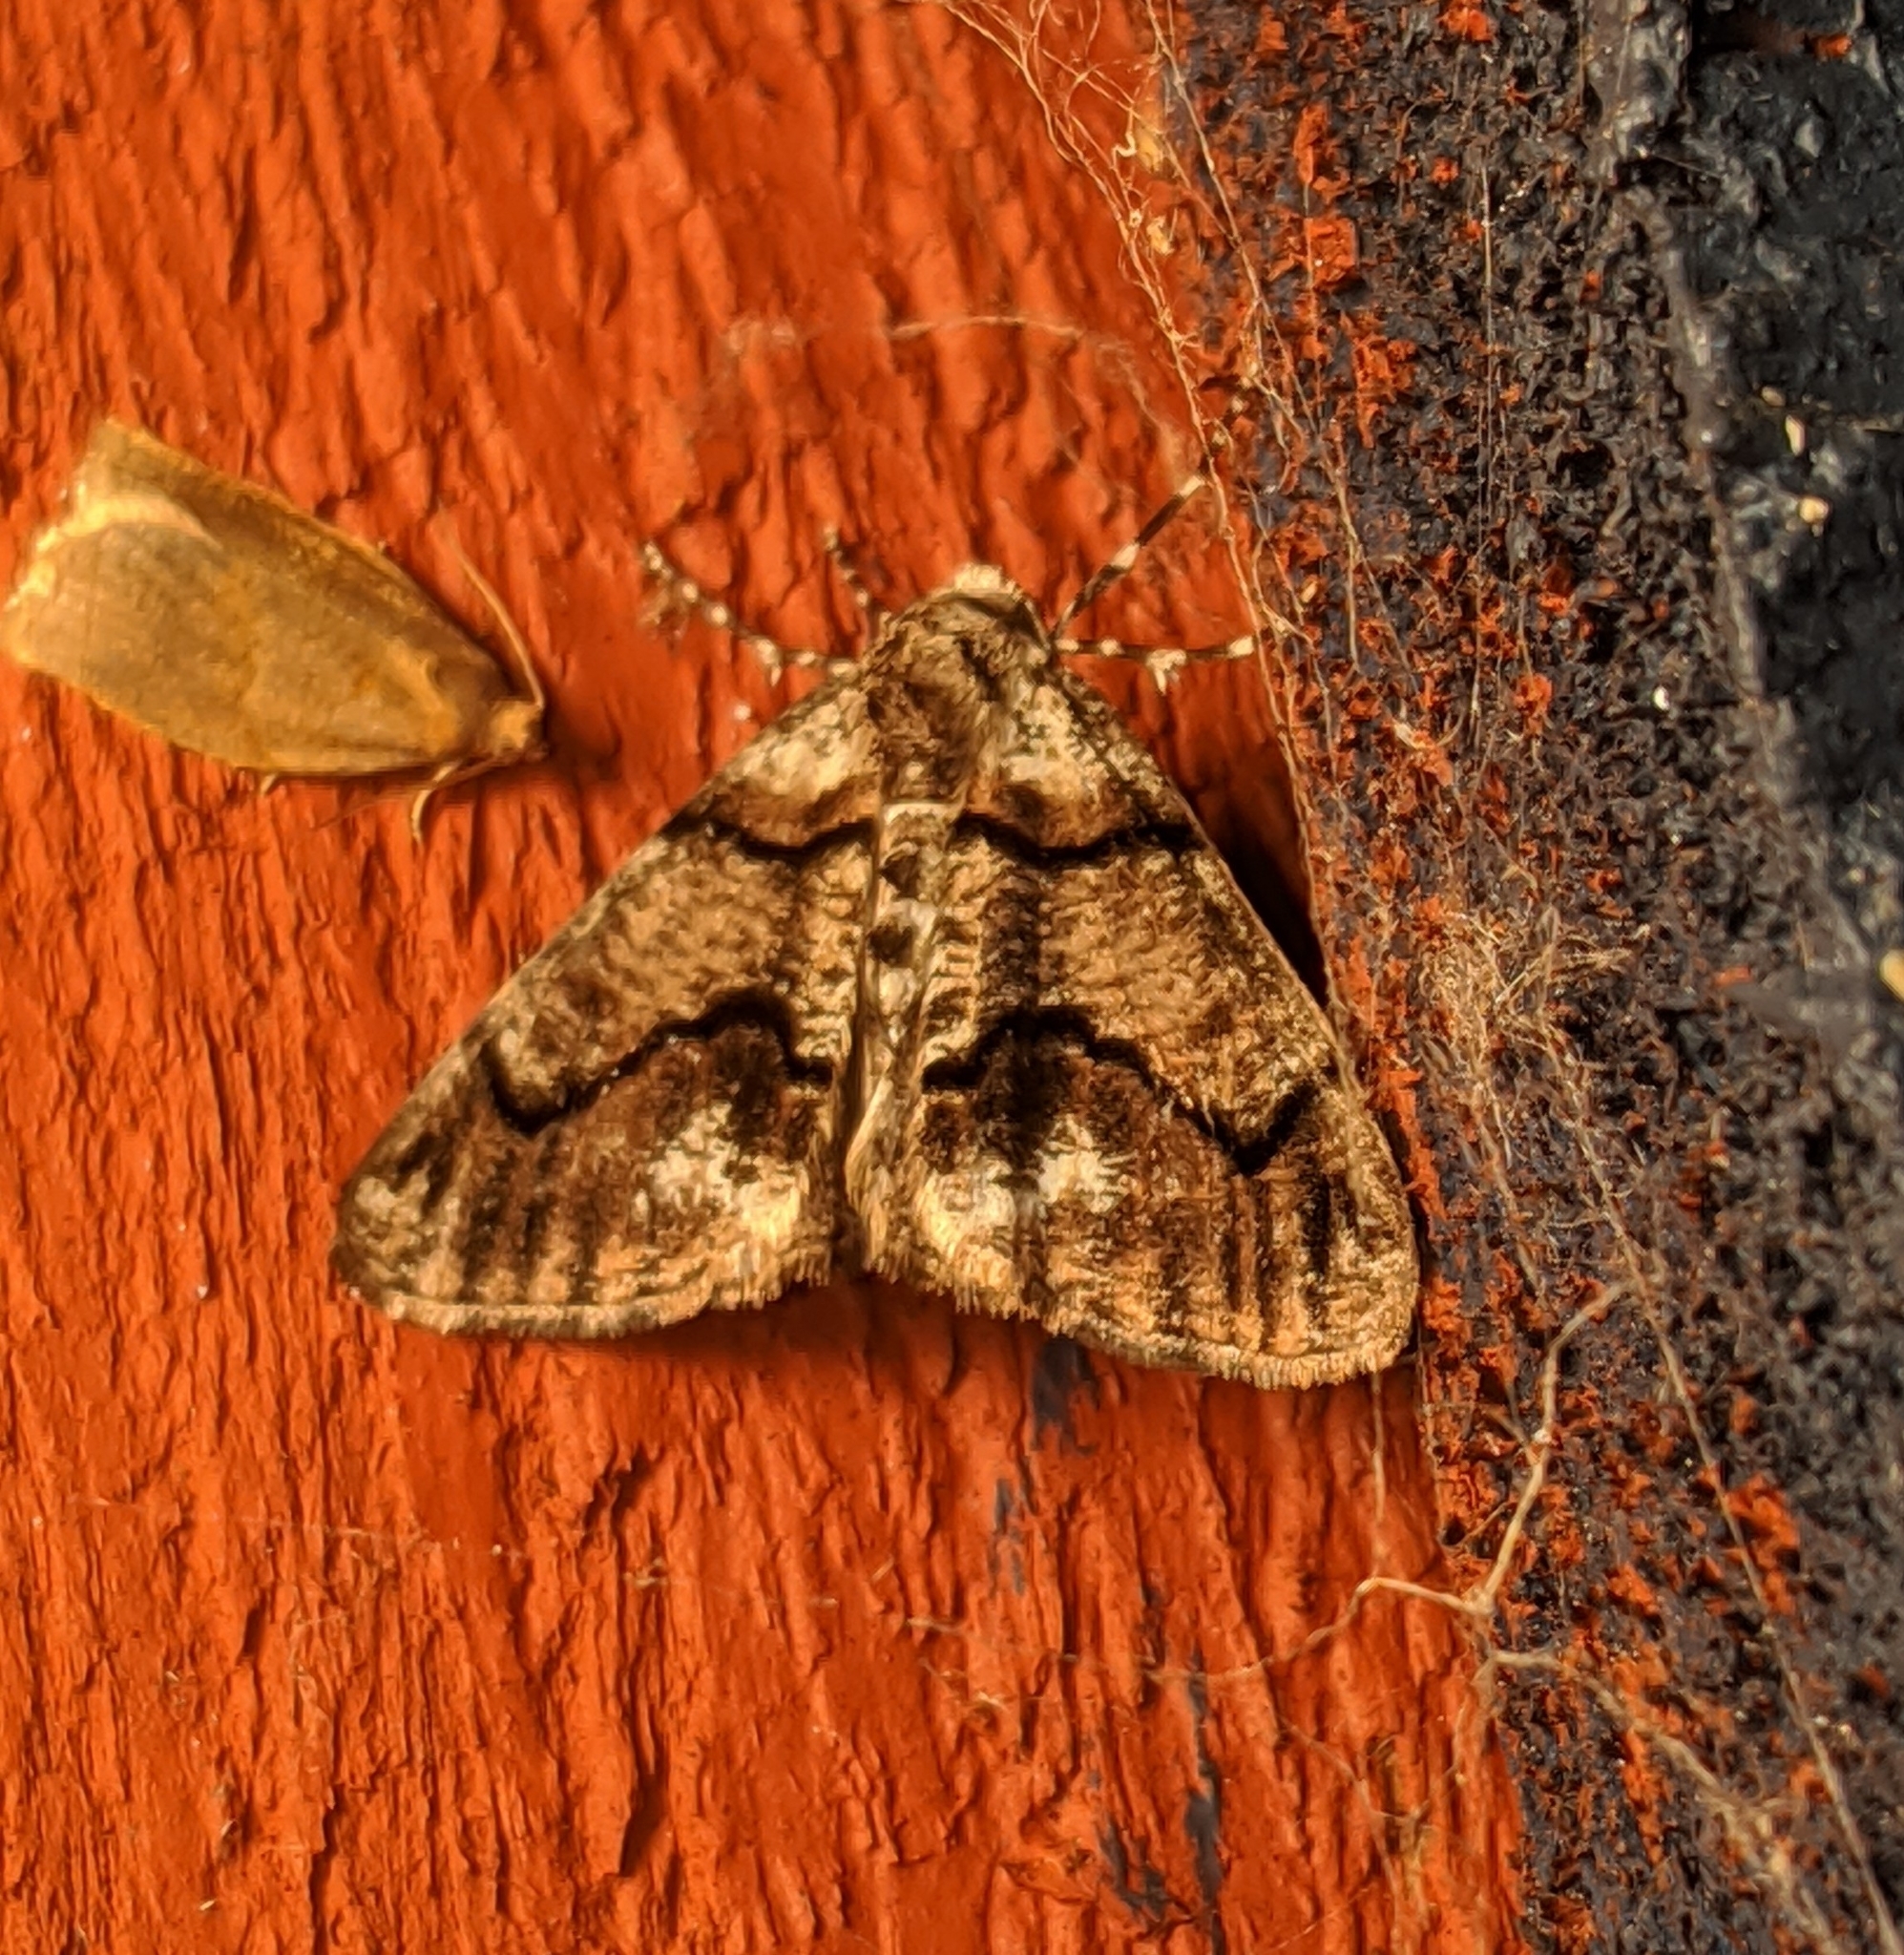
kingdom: Animalia
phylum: Arthropoda
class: Insecta
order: Lepidoptera
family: Geometridae
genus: Gabriola
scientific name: Gabriola dyari
